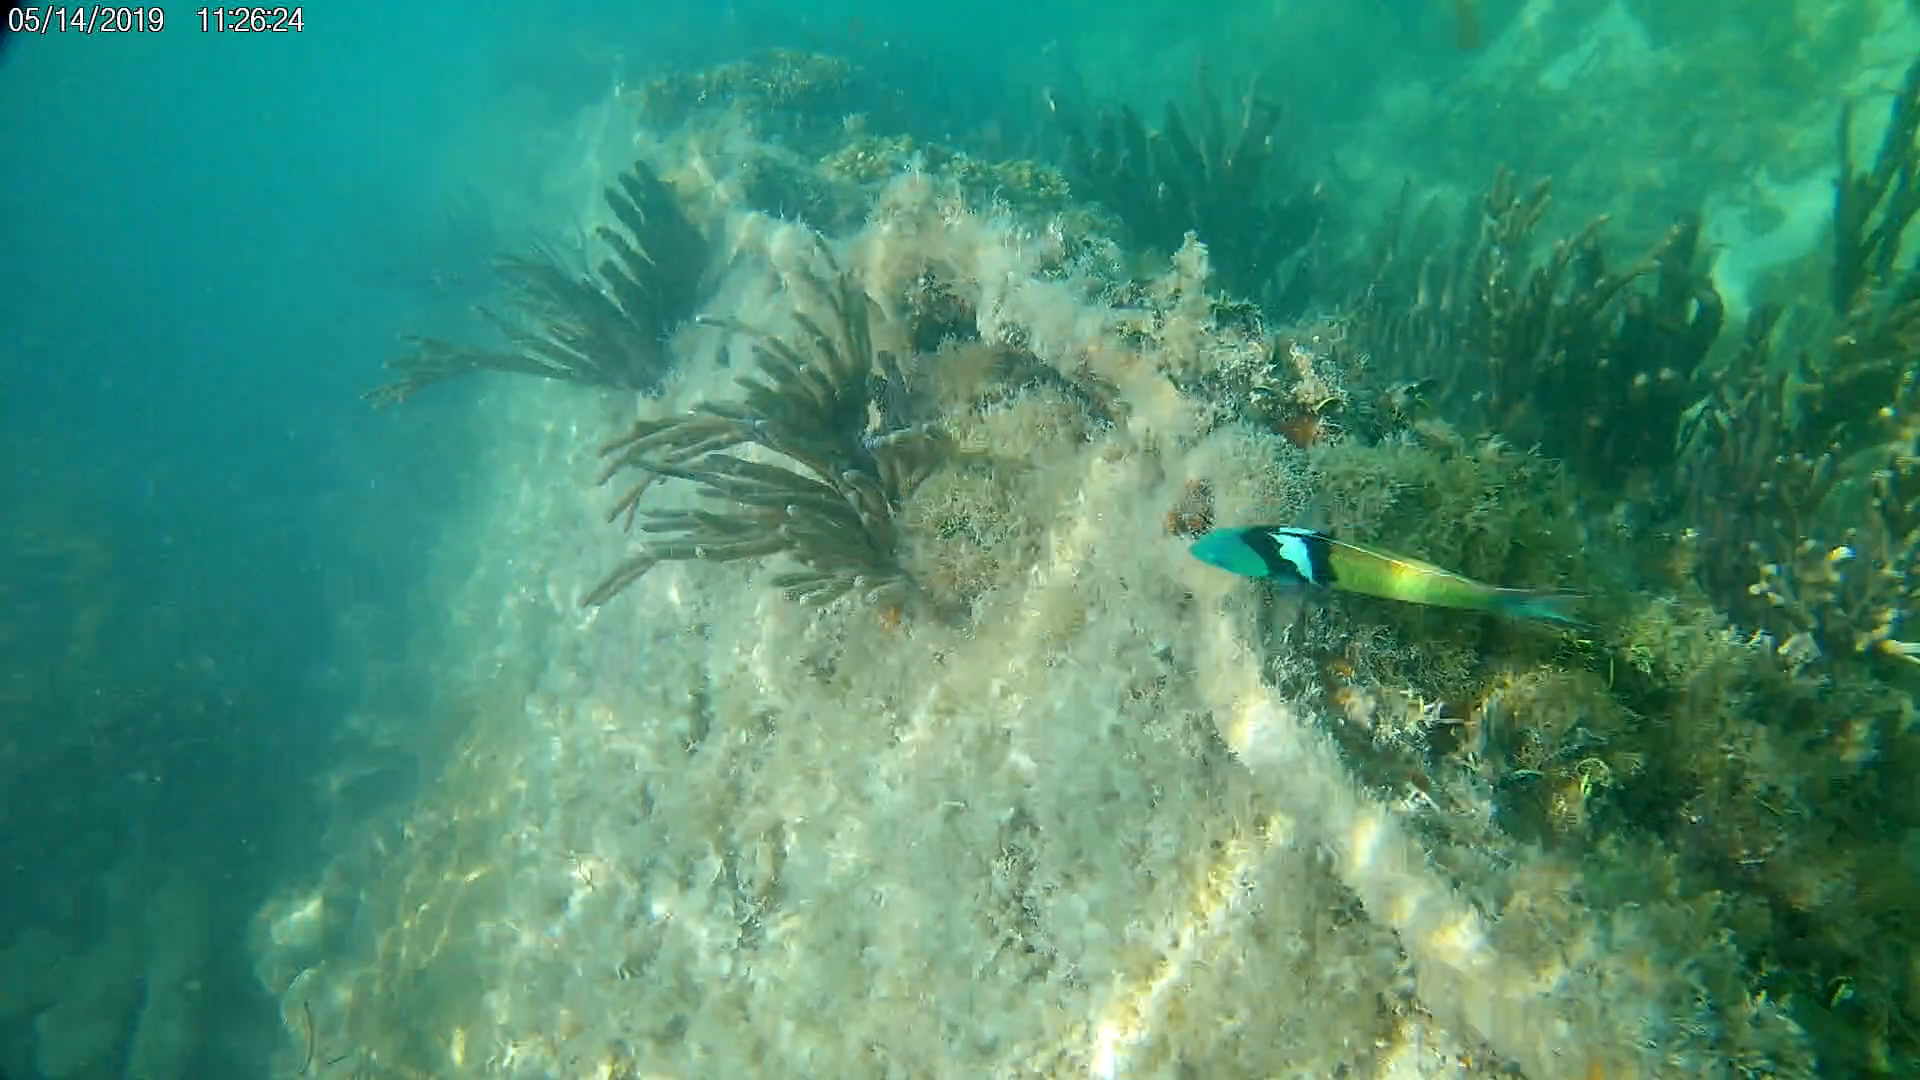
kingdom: Animalia
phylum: Chordata
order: Perciformes
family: Labridae
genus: Thalassoma
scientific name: Thalassoma bifasciatum
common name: Bluehead wrasse
